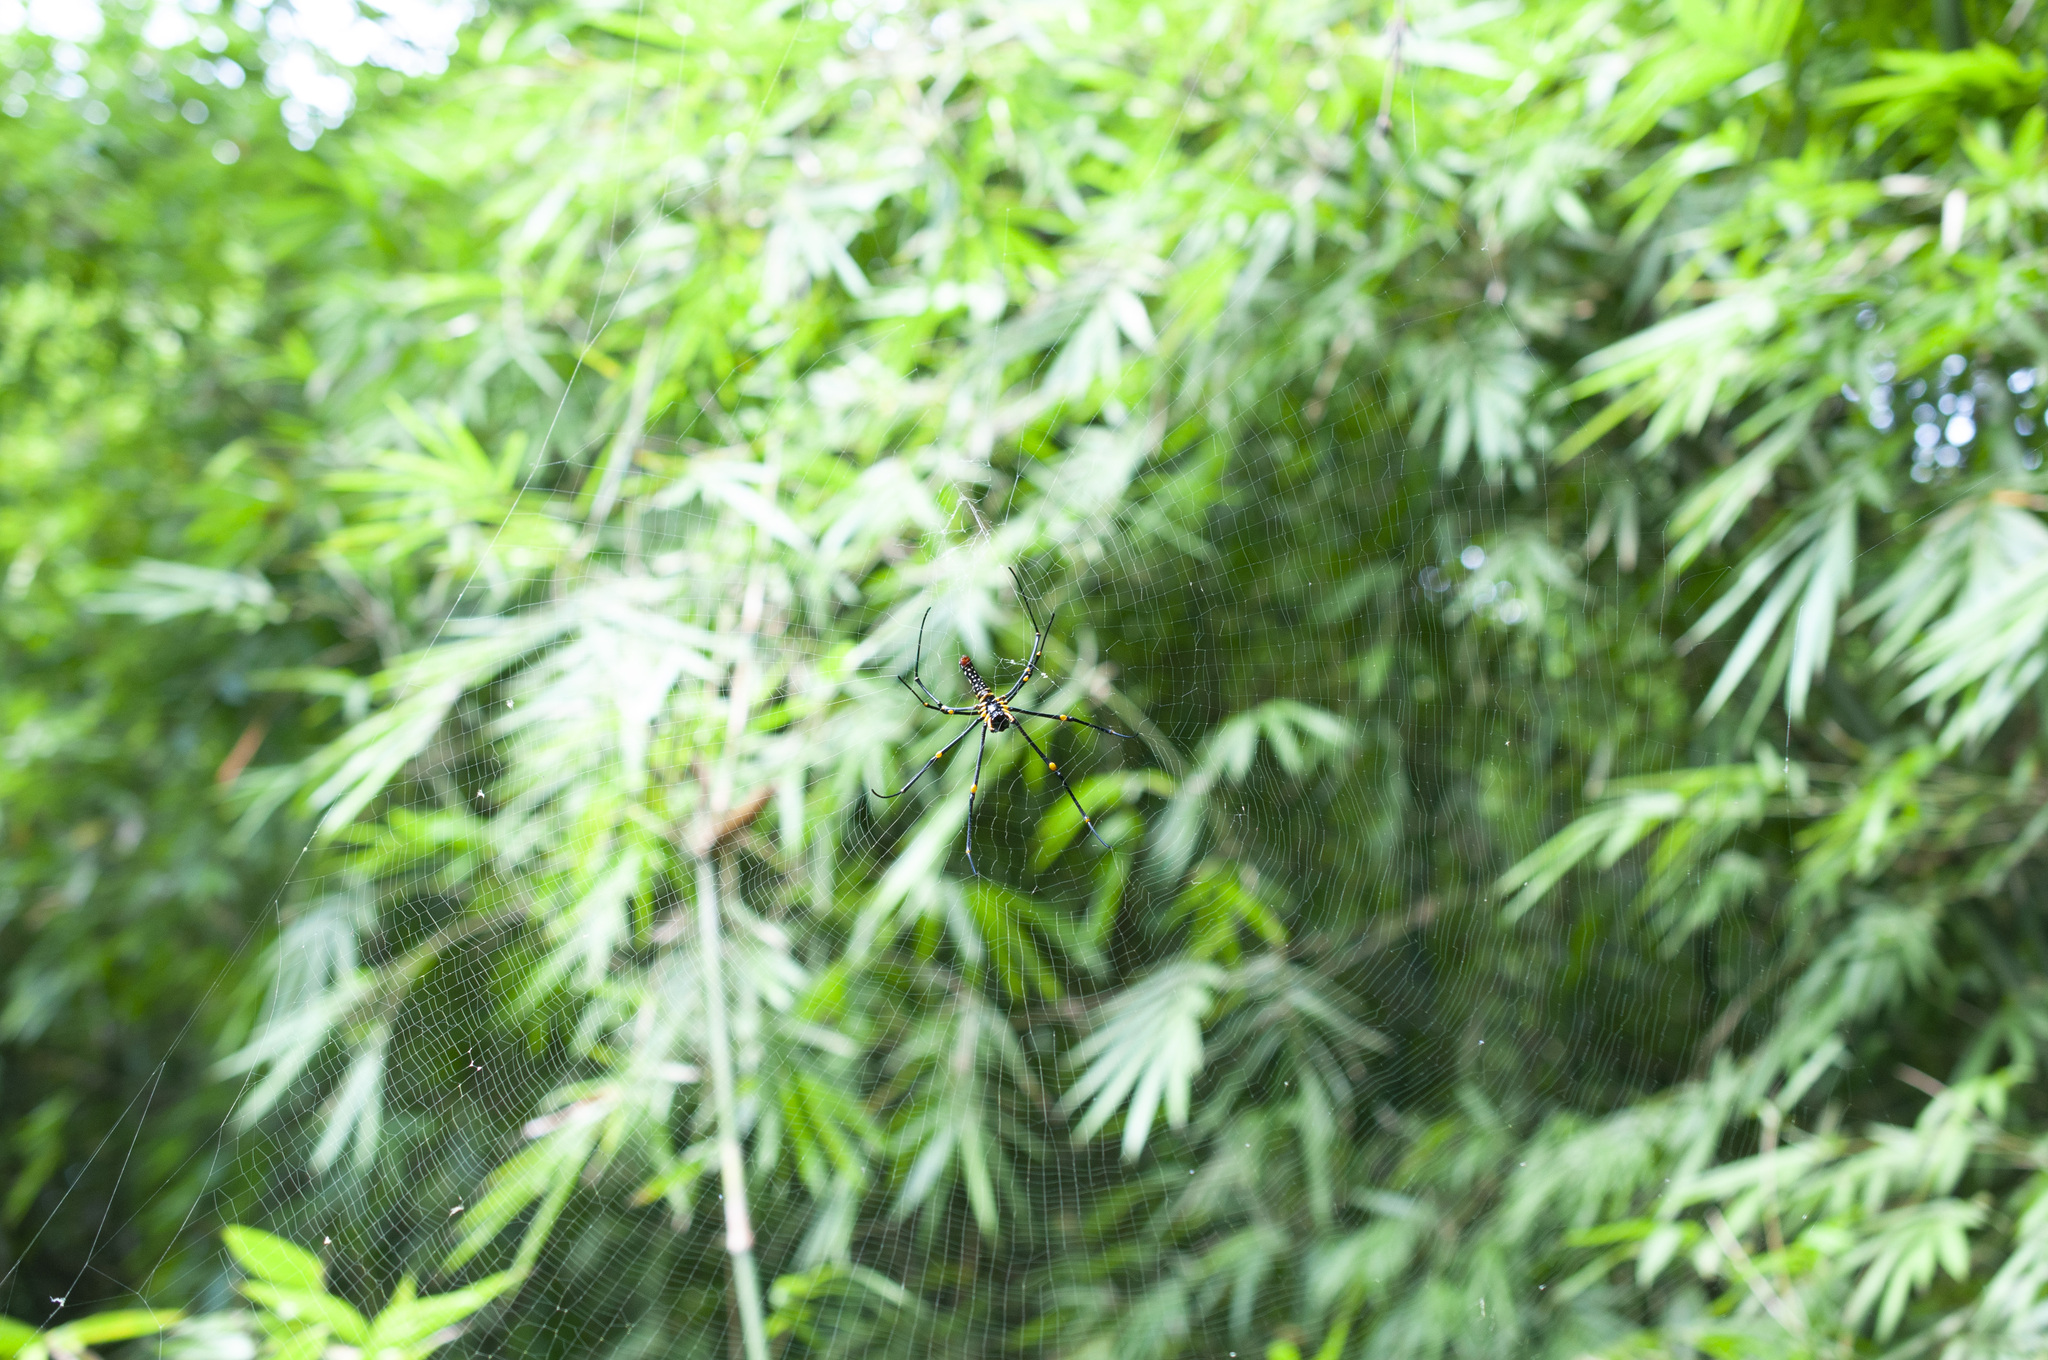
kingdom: Animalia
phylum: Arthropoda
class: Arachnida
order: Araneae
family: Araneidae
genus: Nephila
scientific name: Nephila pilipes
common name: Giant golden orb weaver
